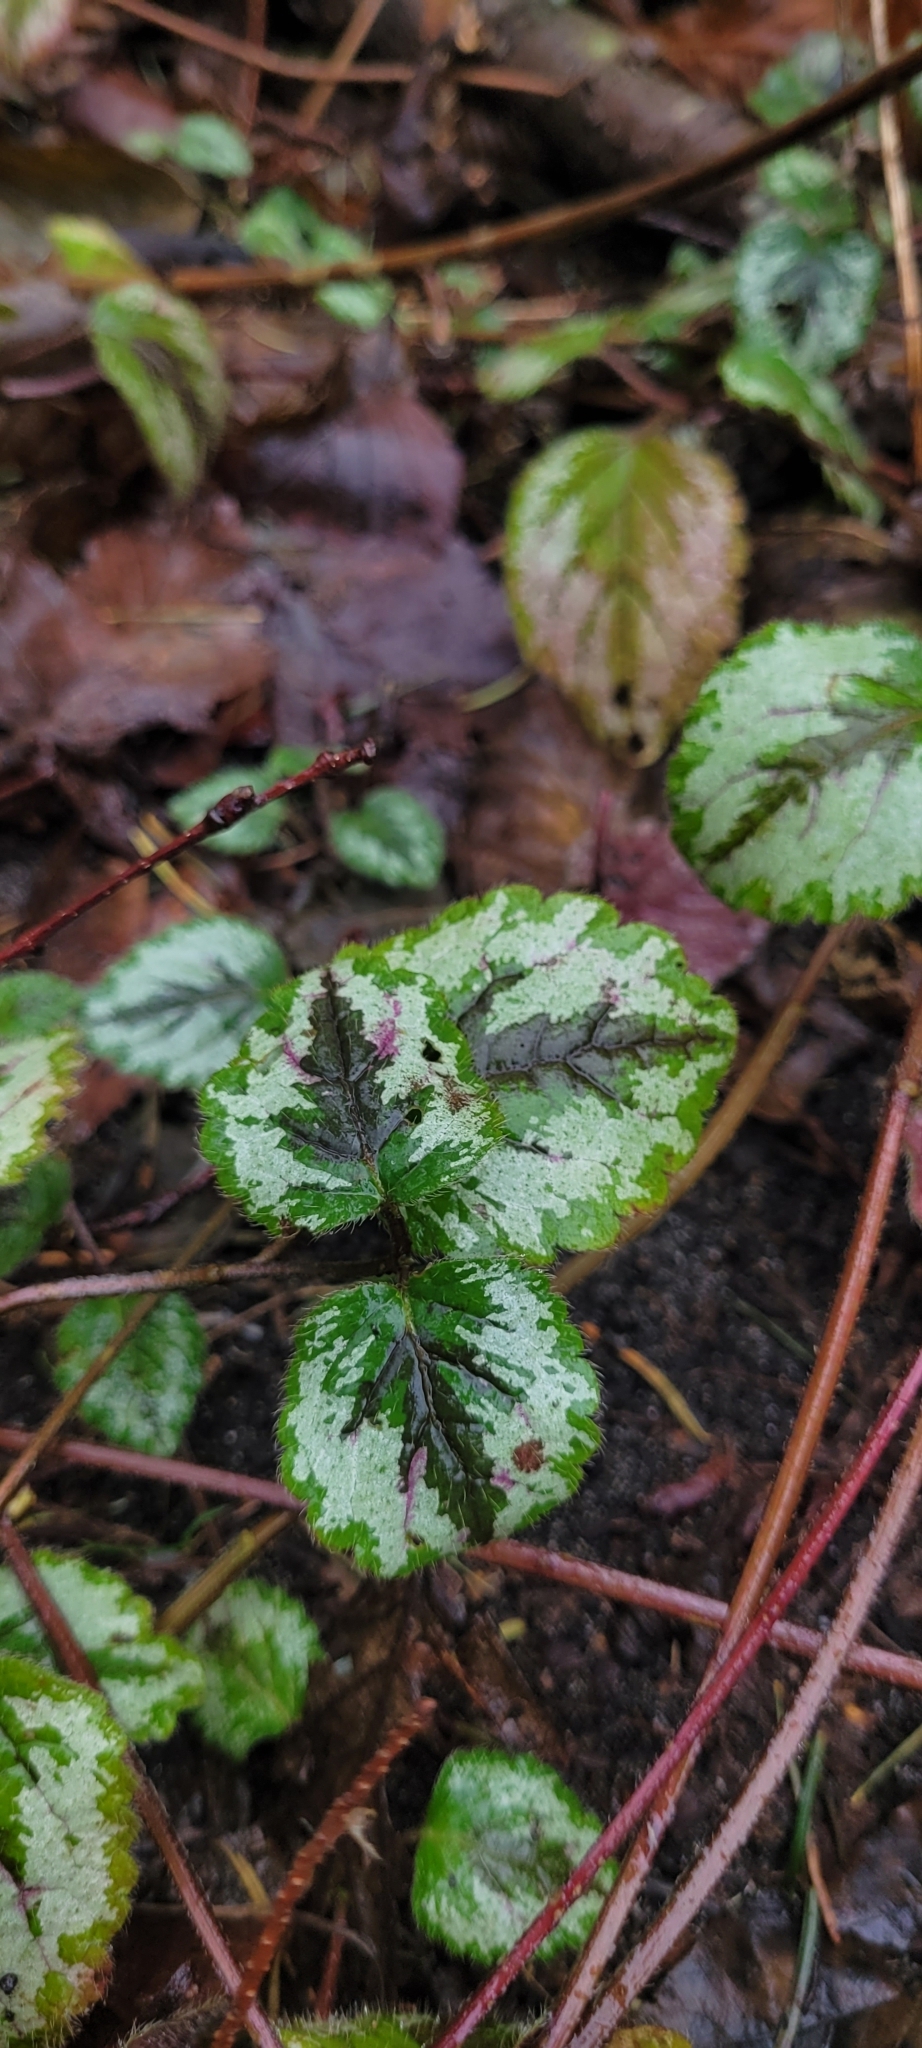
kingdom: Plantae
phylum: Tracheophyta
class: Magnoliopsida
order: Lamiales
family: Lamiaceae
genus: Lamium
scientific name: Lamium galeobdolon
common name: Yellow archangel
